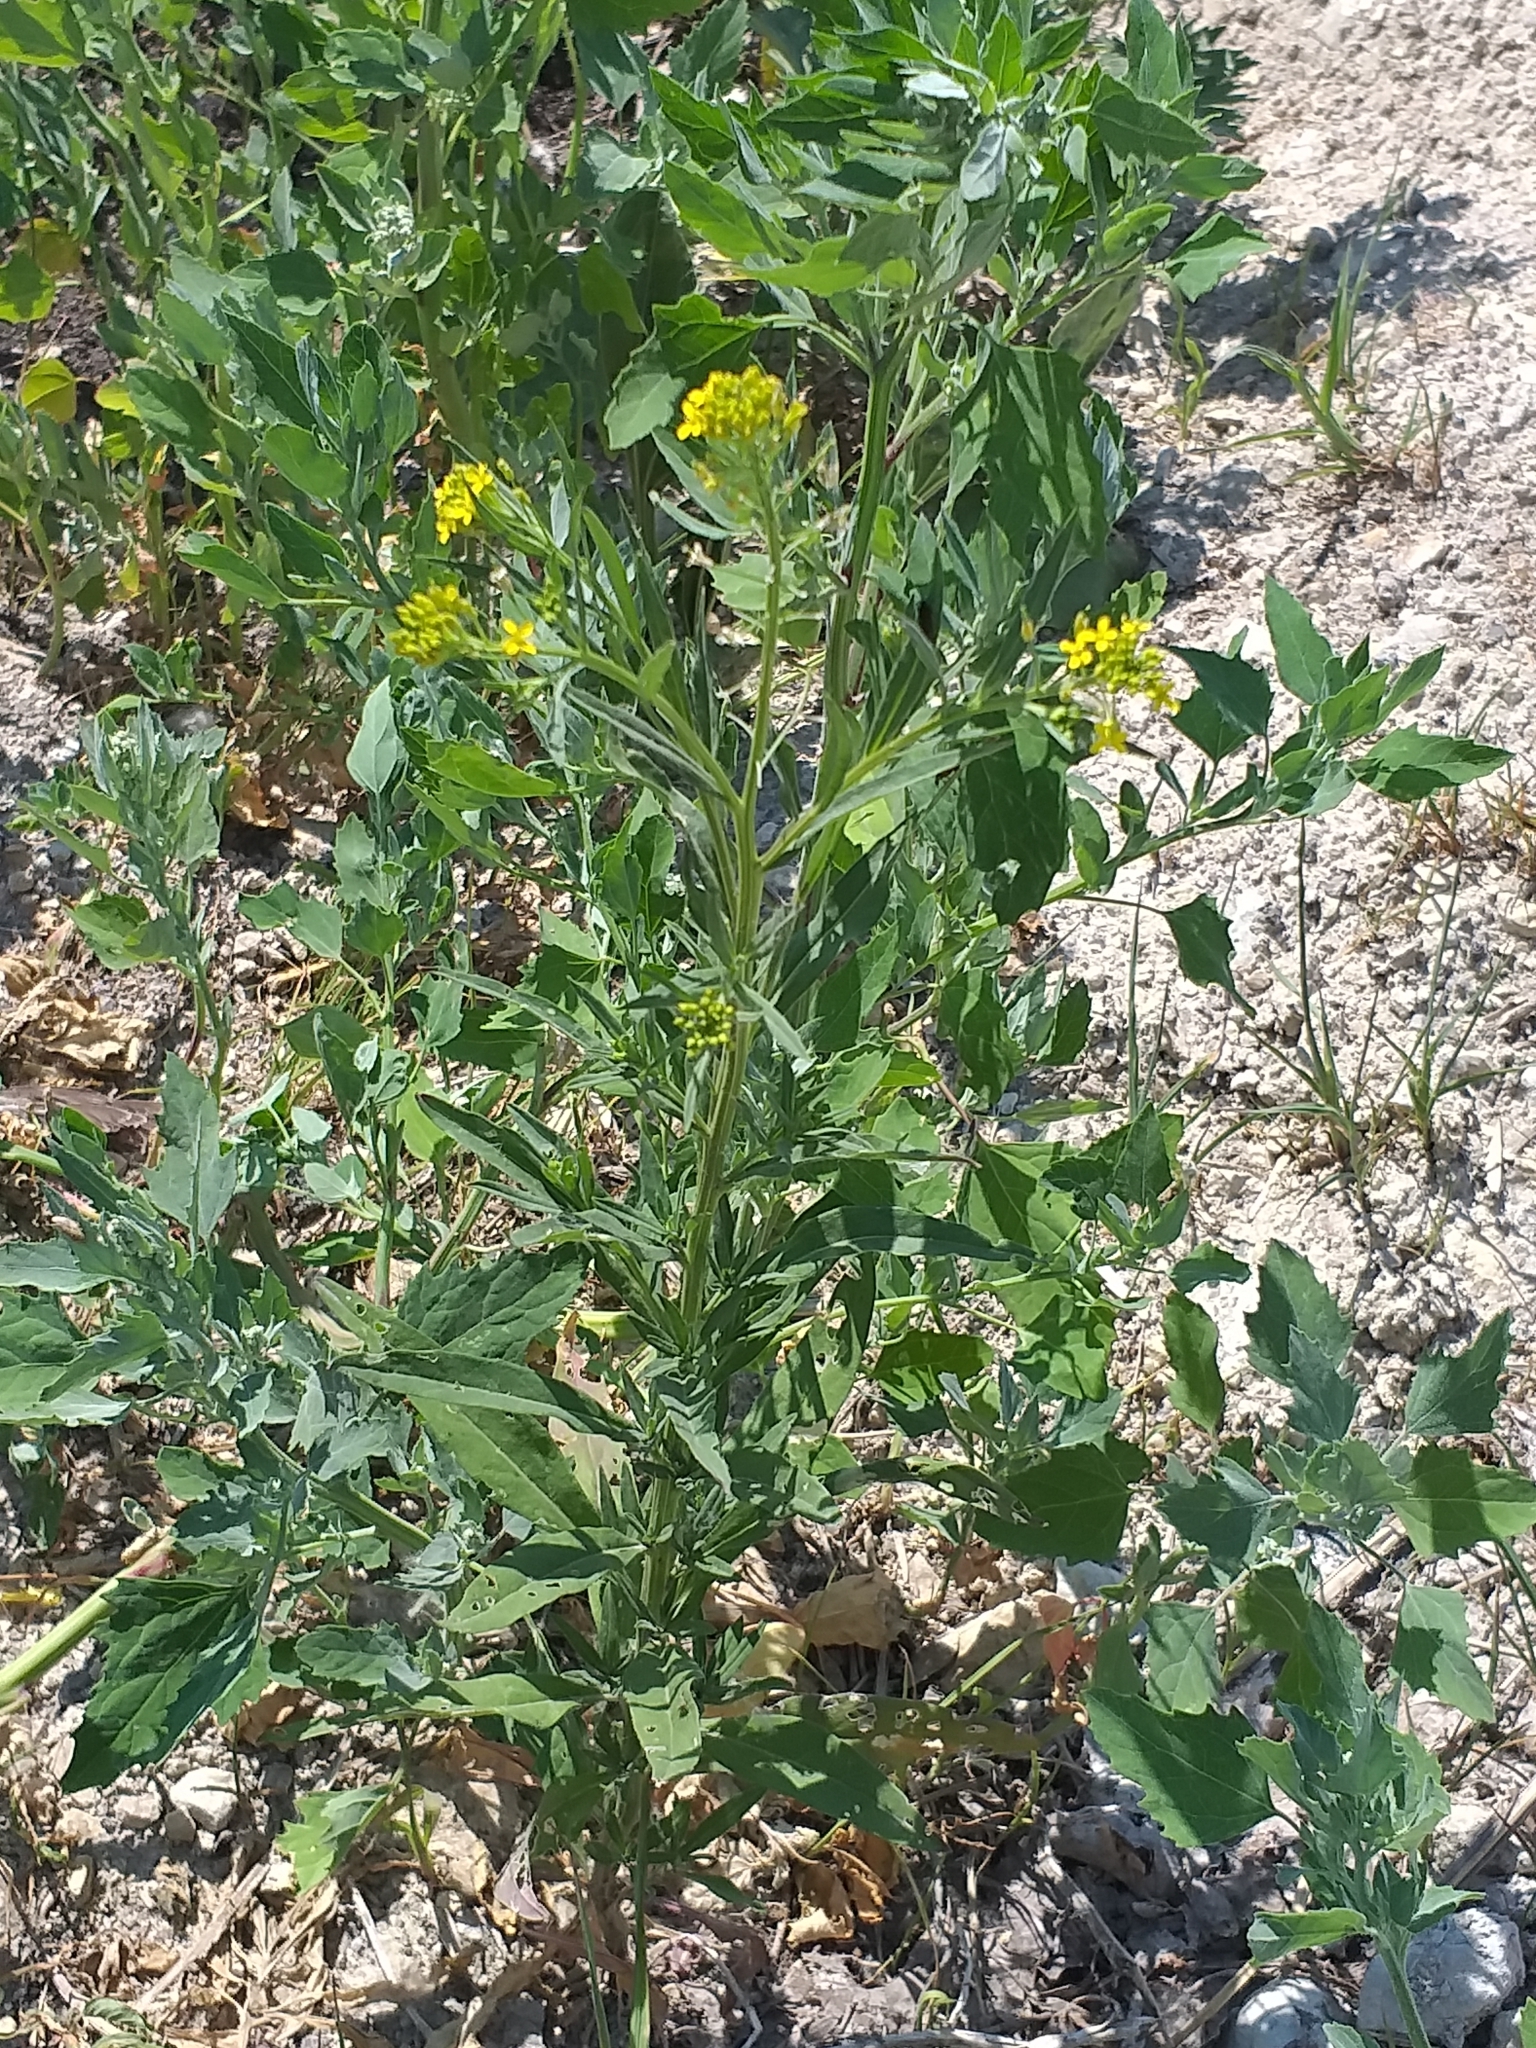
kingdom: Plantae
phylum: Tracheophyta
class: Magnoliopsida
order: Brassicales
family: Brassicaceae
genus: Erysimum
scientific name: Erysimum cheiranthoides
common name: Treacle mustard
